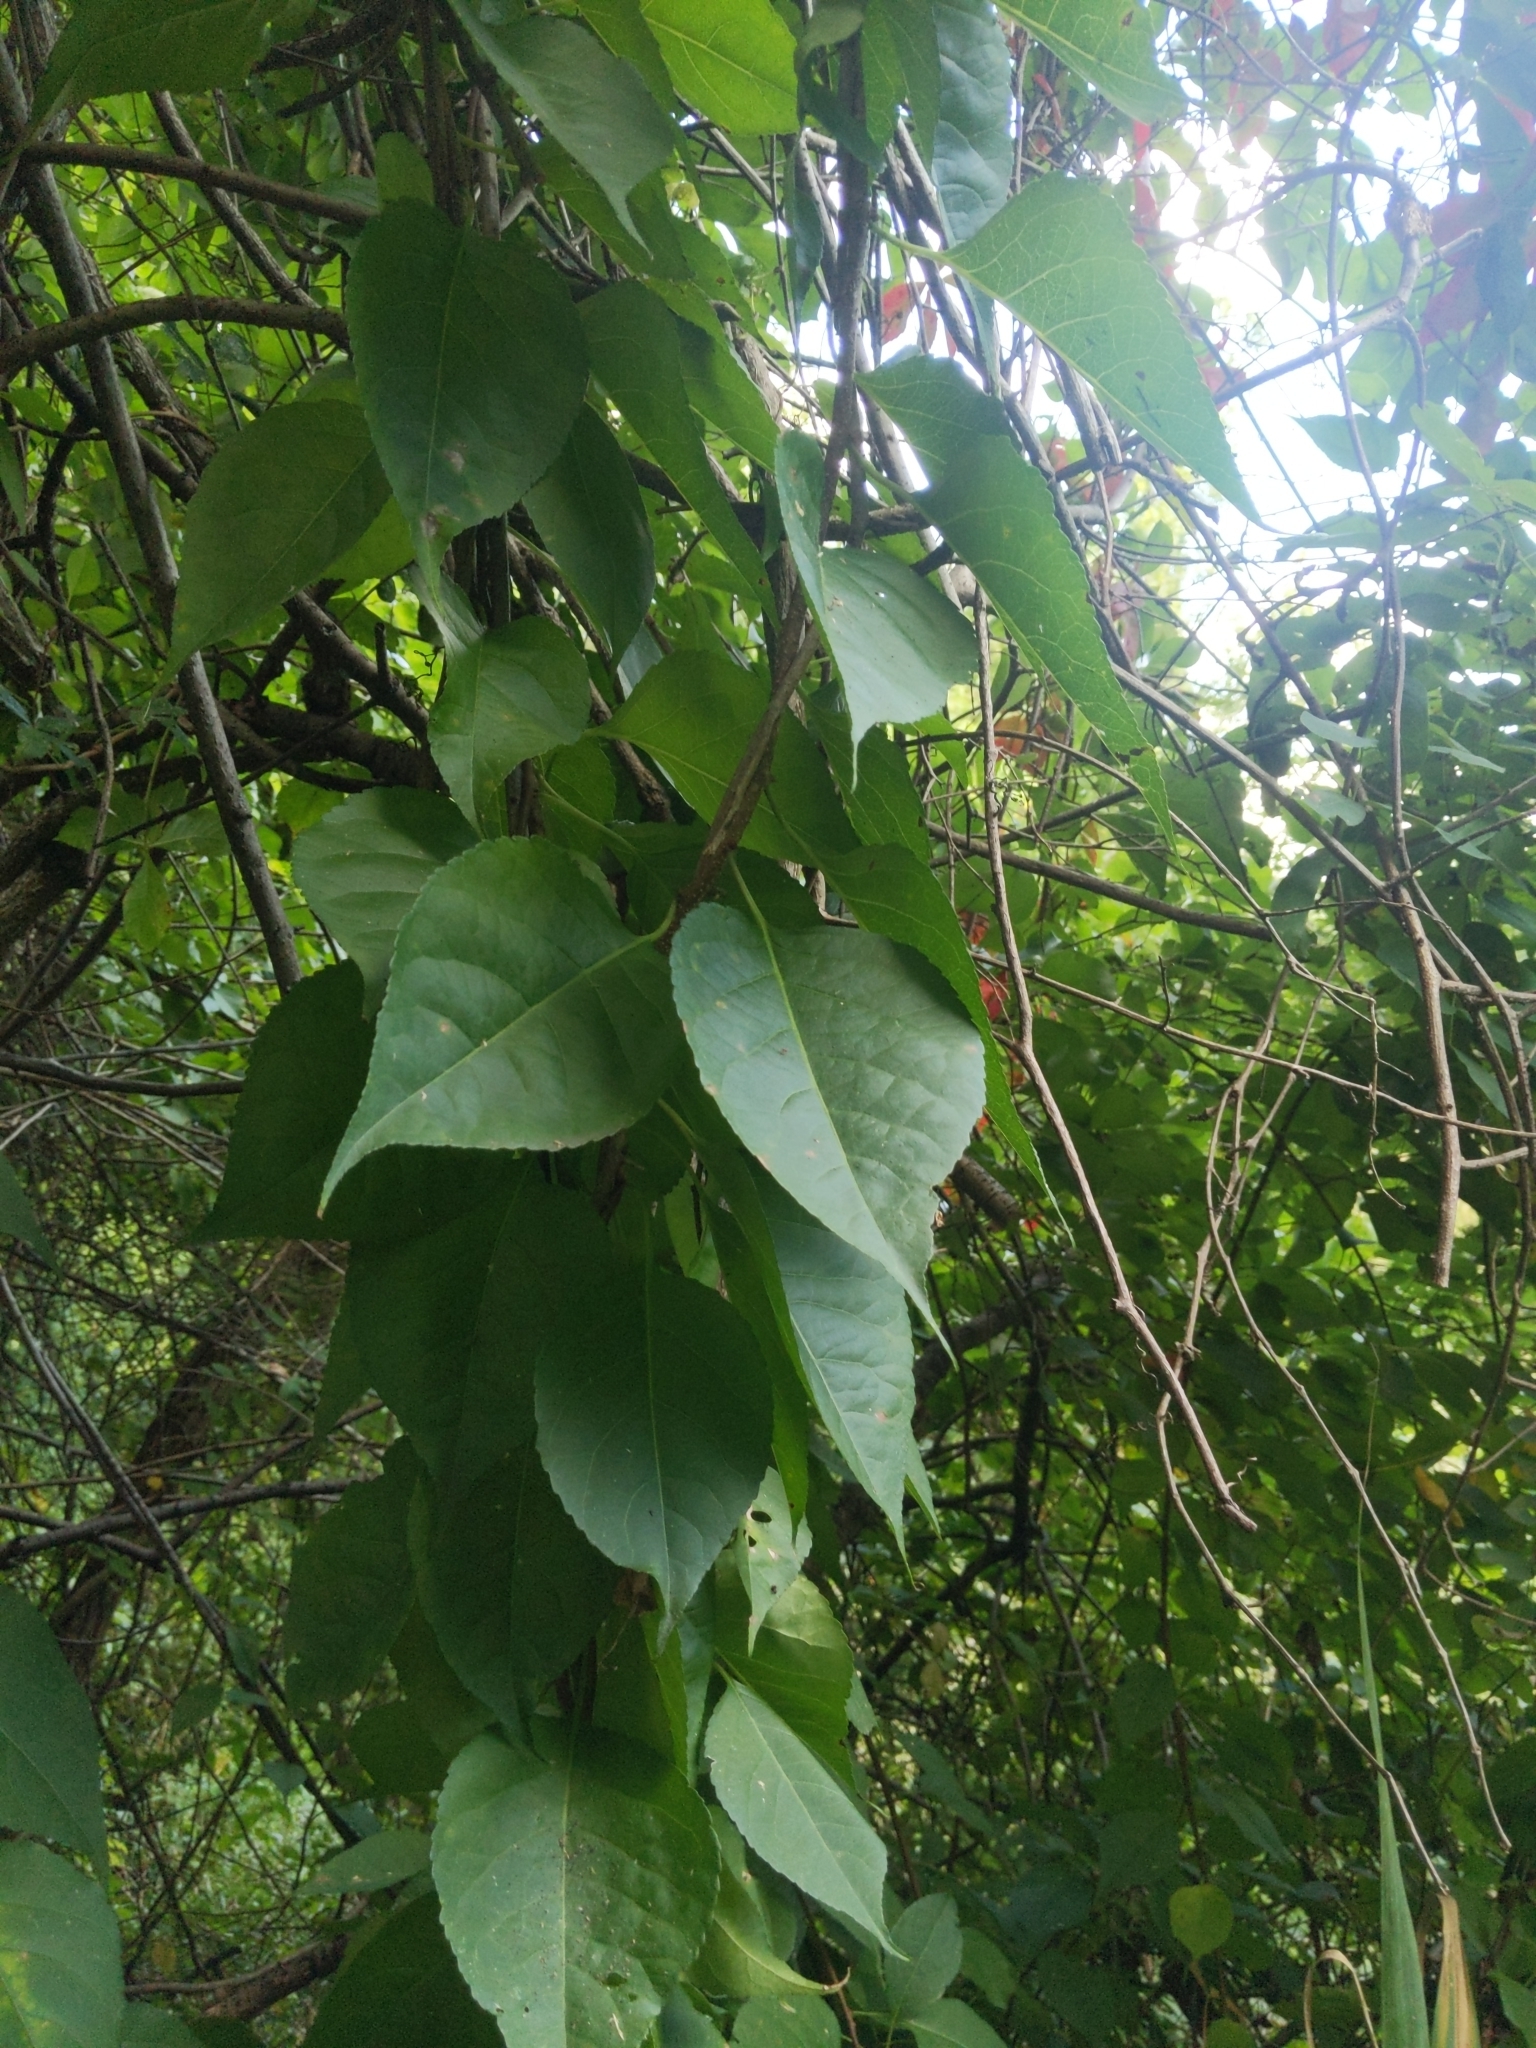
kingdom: Plantae
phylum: Tracheophyta
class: Magnoliopsida
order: Celastrales
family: Celastraceae
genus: Celastrus
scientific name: Celastrus orbiculatus
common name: Oriental bittersweet
